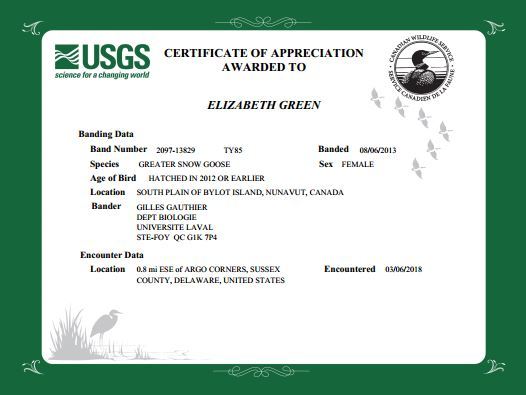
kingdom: Animalia
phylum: Chordata
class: Aves
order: Anseriformes
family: Anatidae
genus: Anser
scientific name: Anser caerulescens
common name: Snow goose
